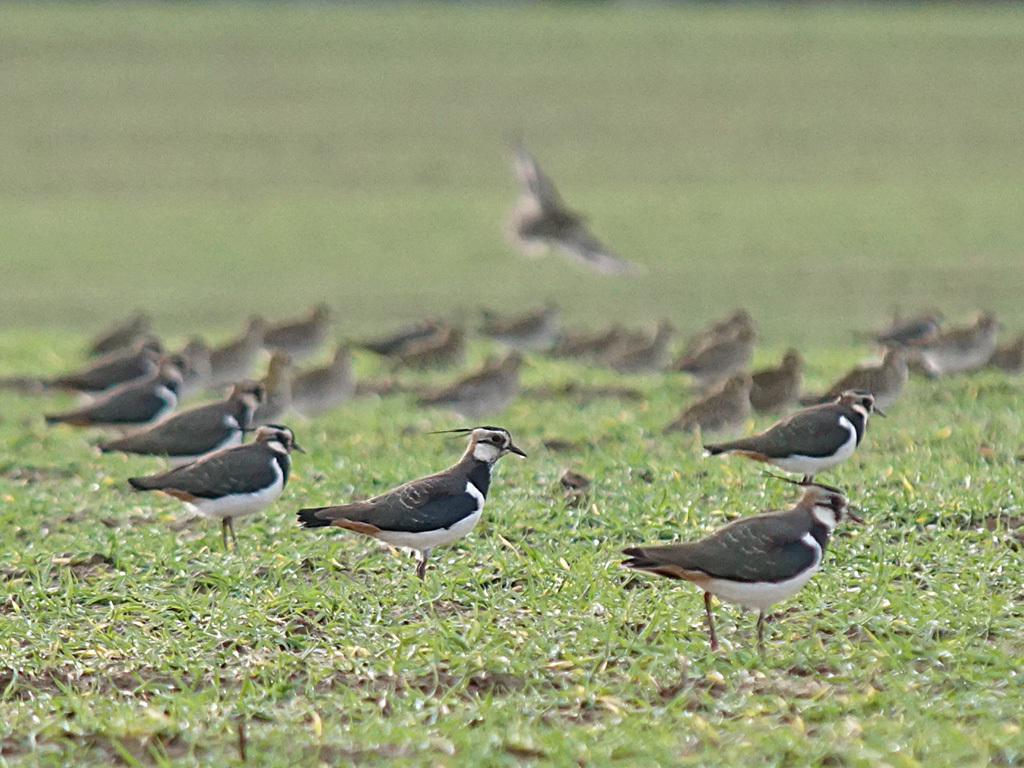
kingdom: Animalia
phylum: Chordata
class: Aves
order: Charadriiformes
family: Charadriidae
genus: Vanellus
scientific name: Vanellus vanellus
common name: Northern lapwing
